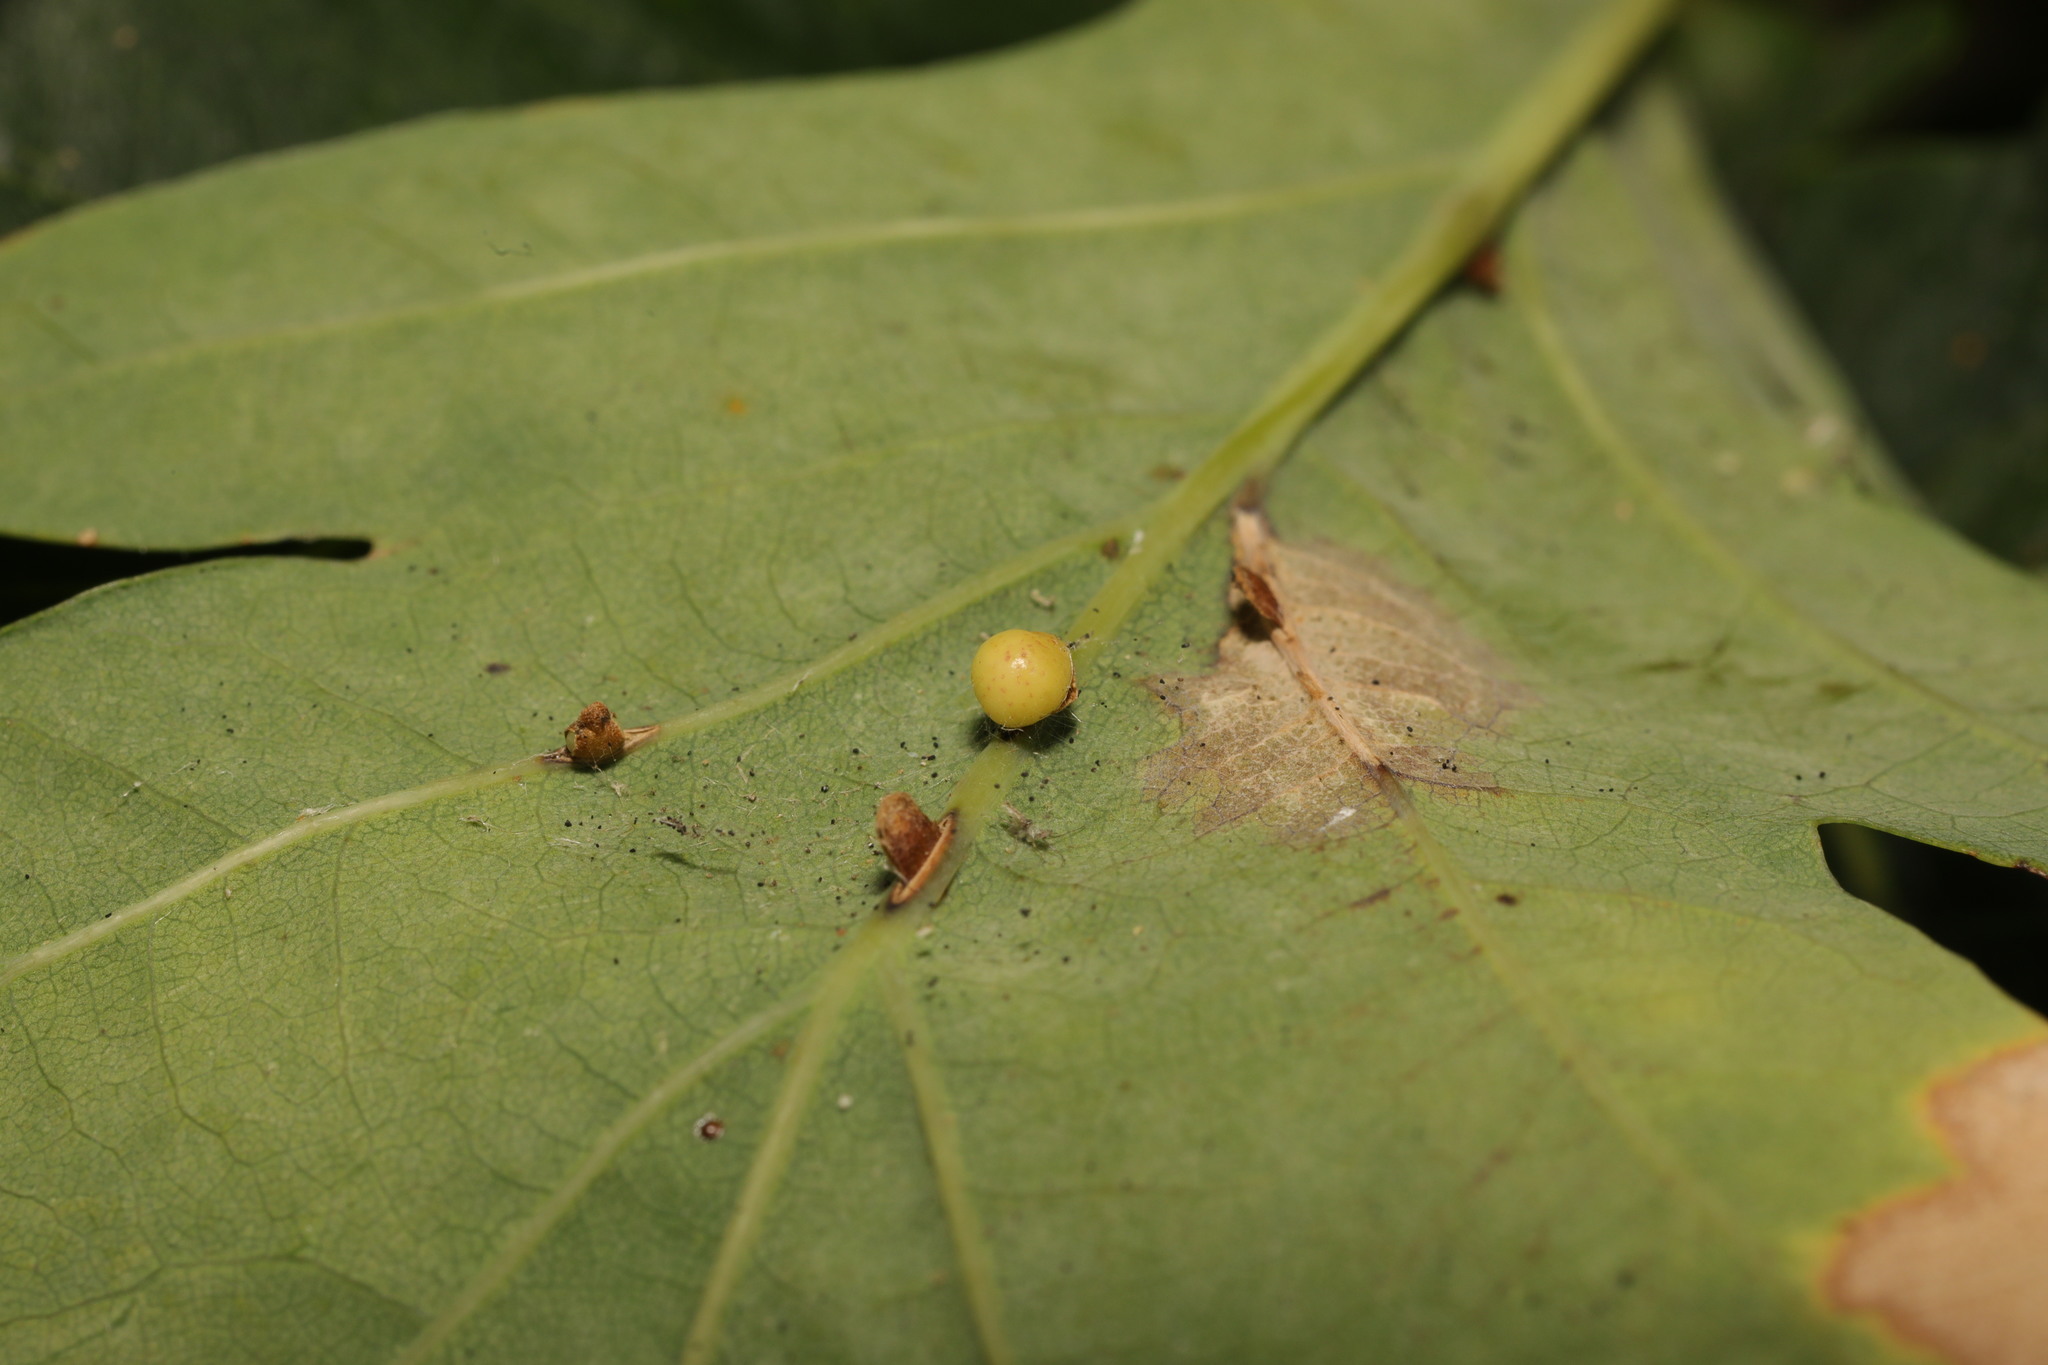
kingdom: Animalia
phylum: Arthropoda
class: Insecta
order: Hymenoptera
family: Cynipidae
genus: Neuroterus
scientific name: Neuroterus anthracinus
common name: Oyster gall
